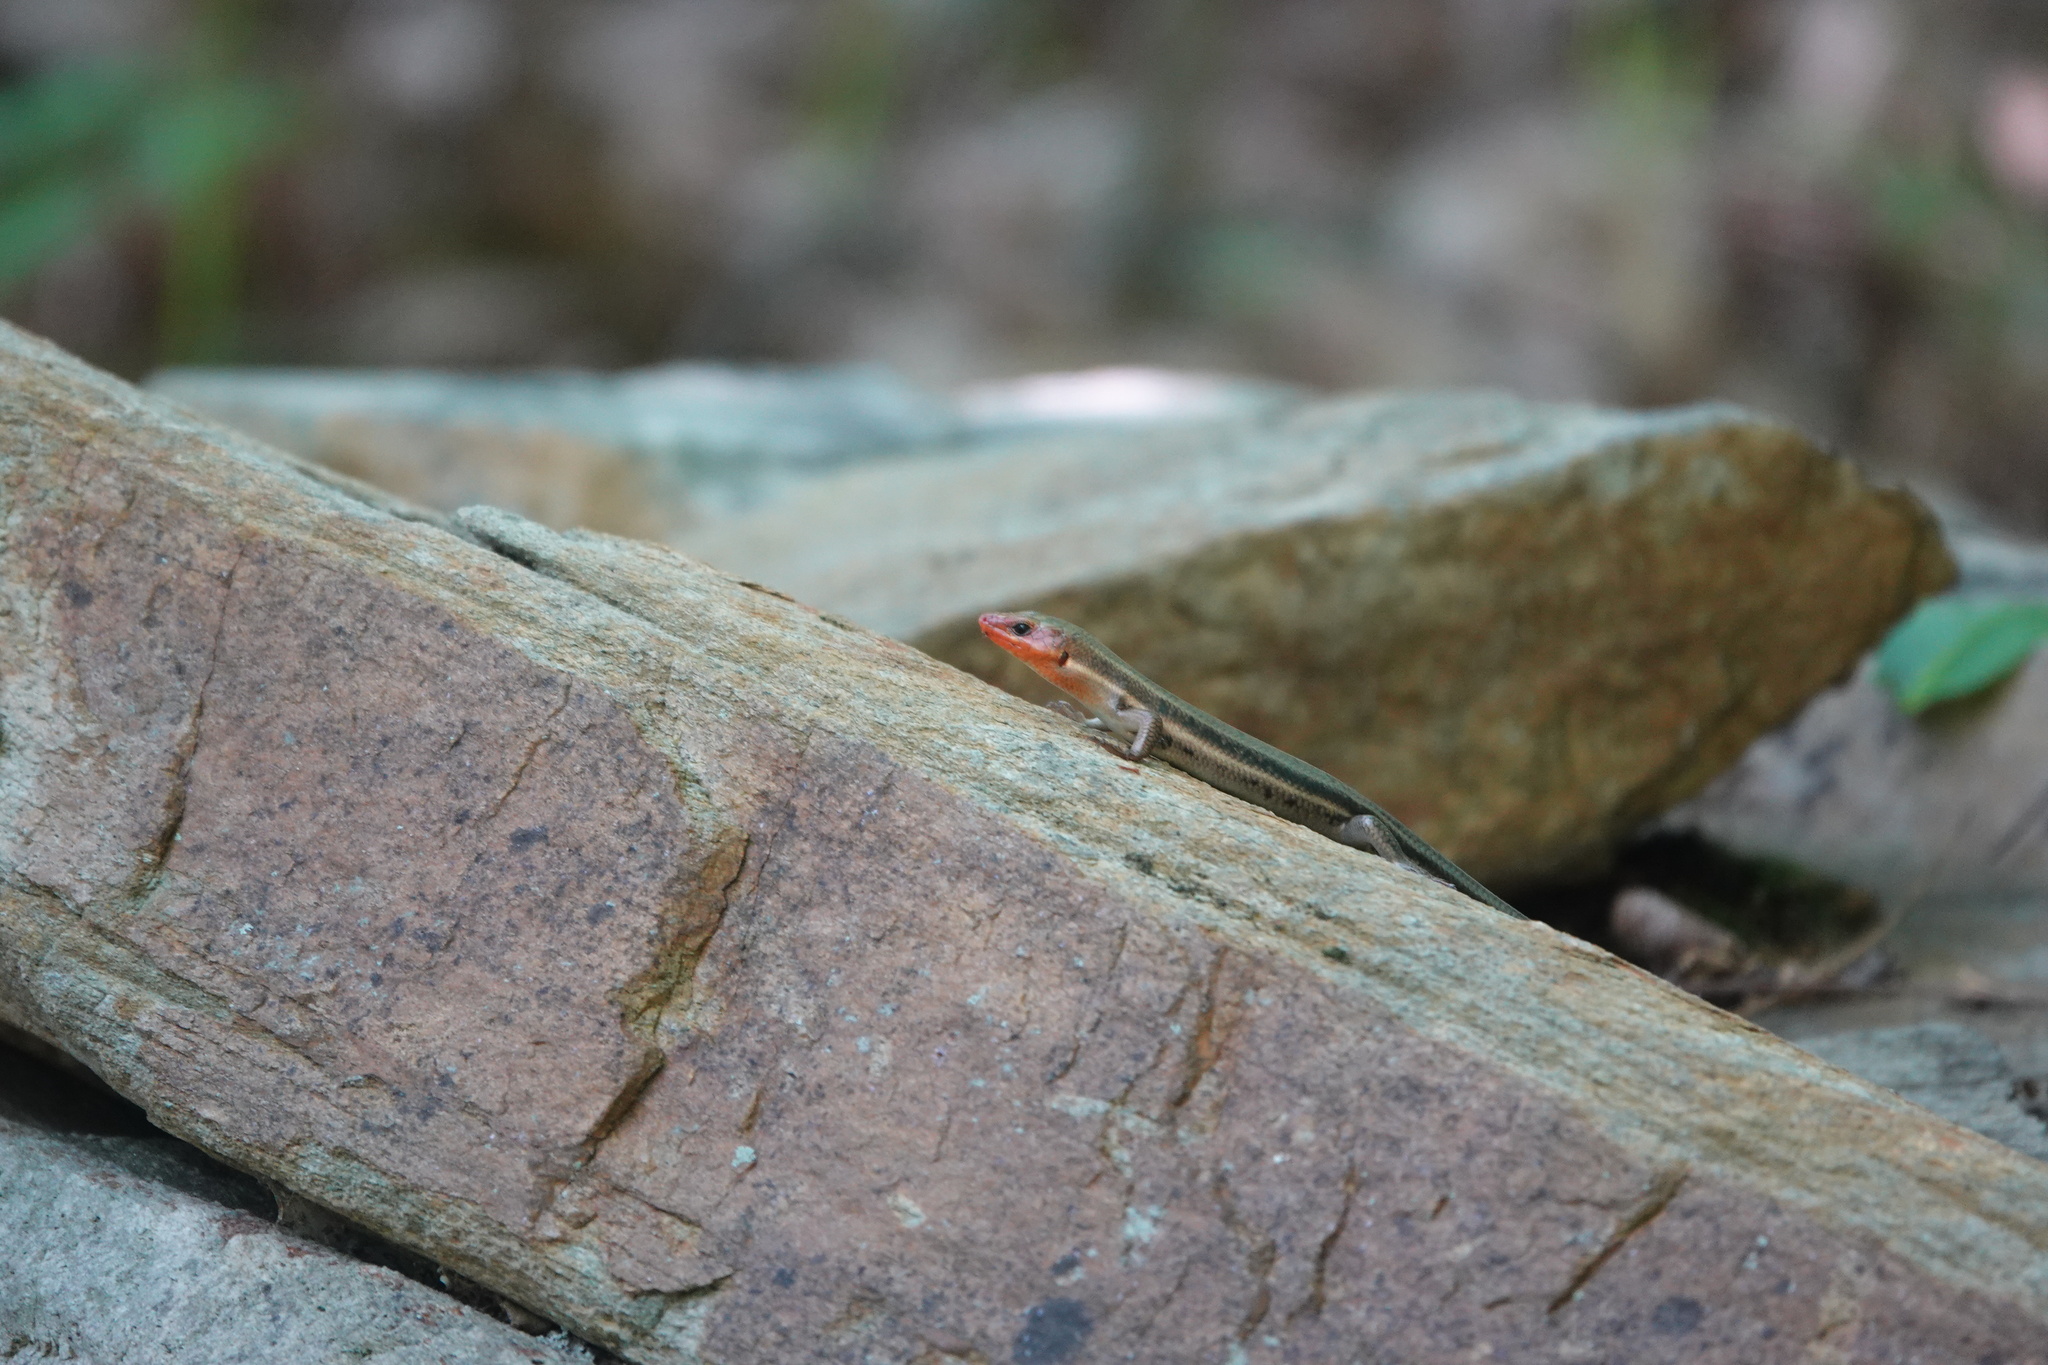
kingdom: Animalia
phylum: Chordata
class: Squamata
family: Scincidae
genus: Plestiodon
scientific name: Plestiodon laticeps
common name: Broadhead skink
